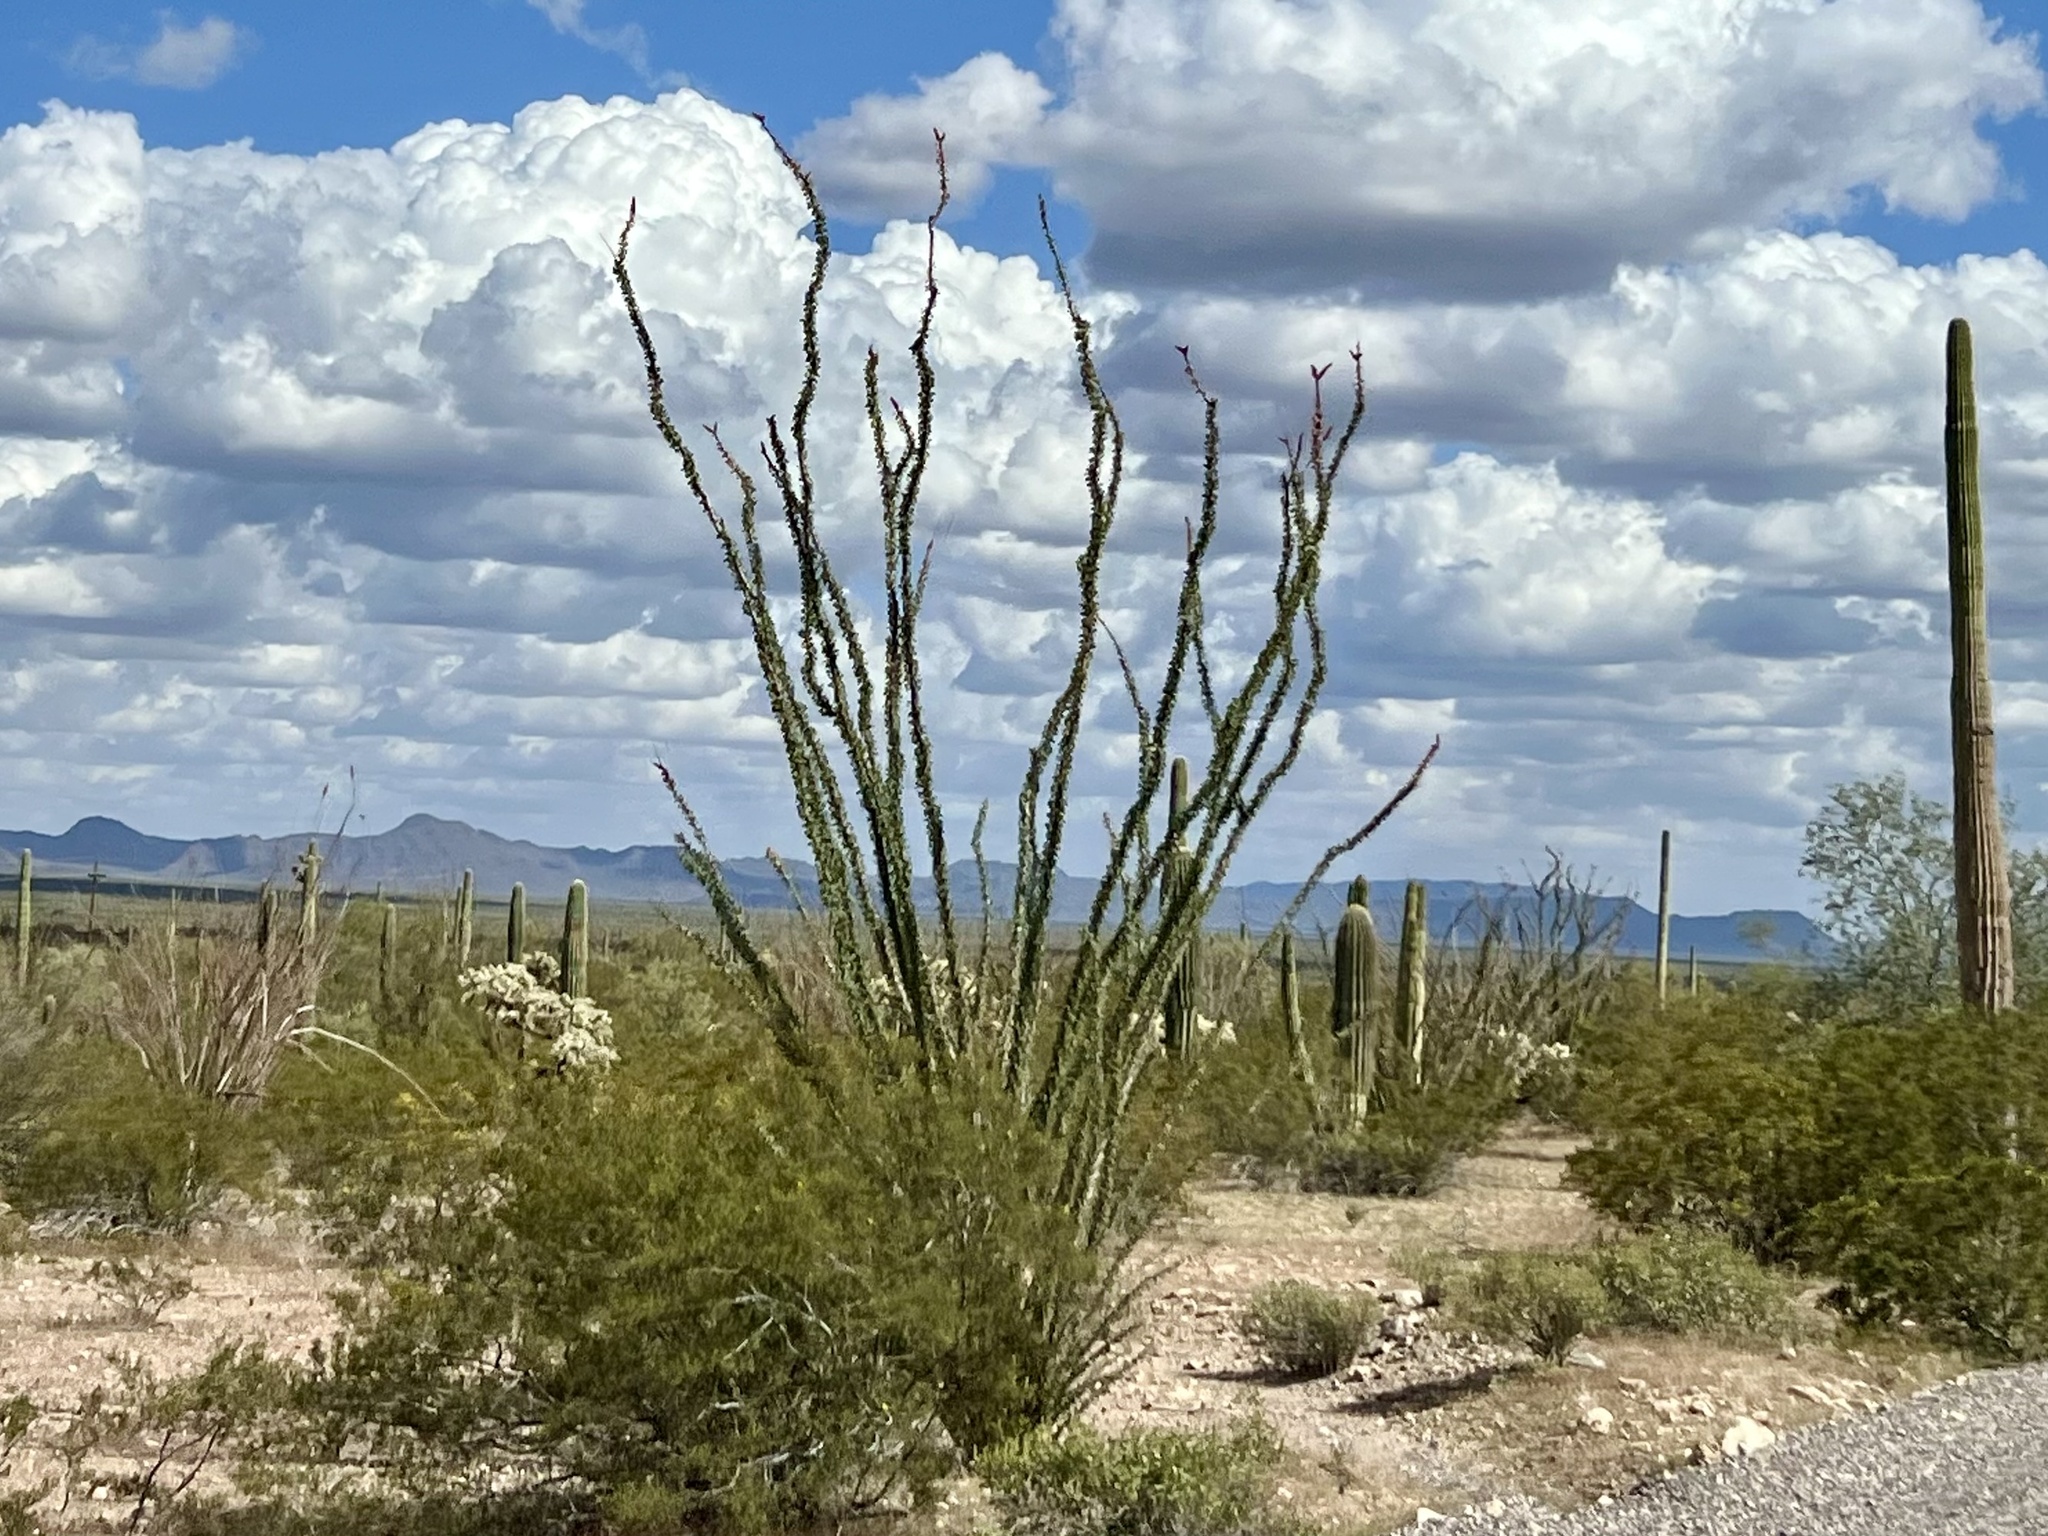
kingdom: Plantae
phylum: Tracheophyta
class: Magnoliopsida
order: Ericales
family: Fouquieriaceae
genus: Fouquieria
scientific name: Fouquieria splendens
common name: Vine-cactus
